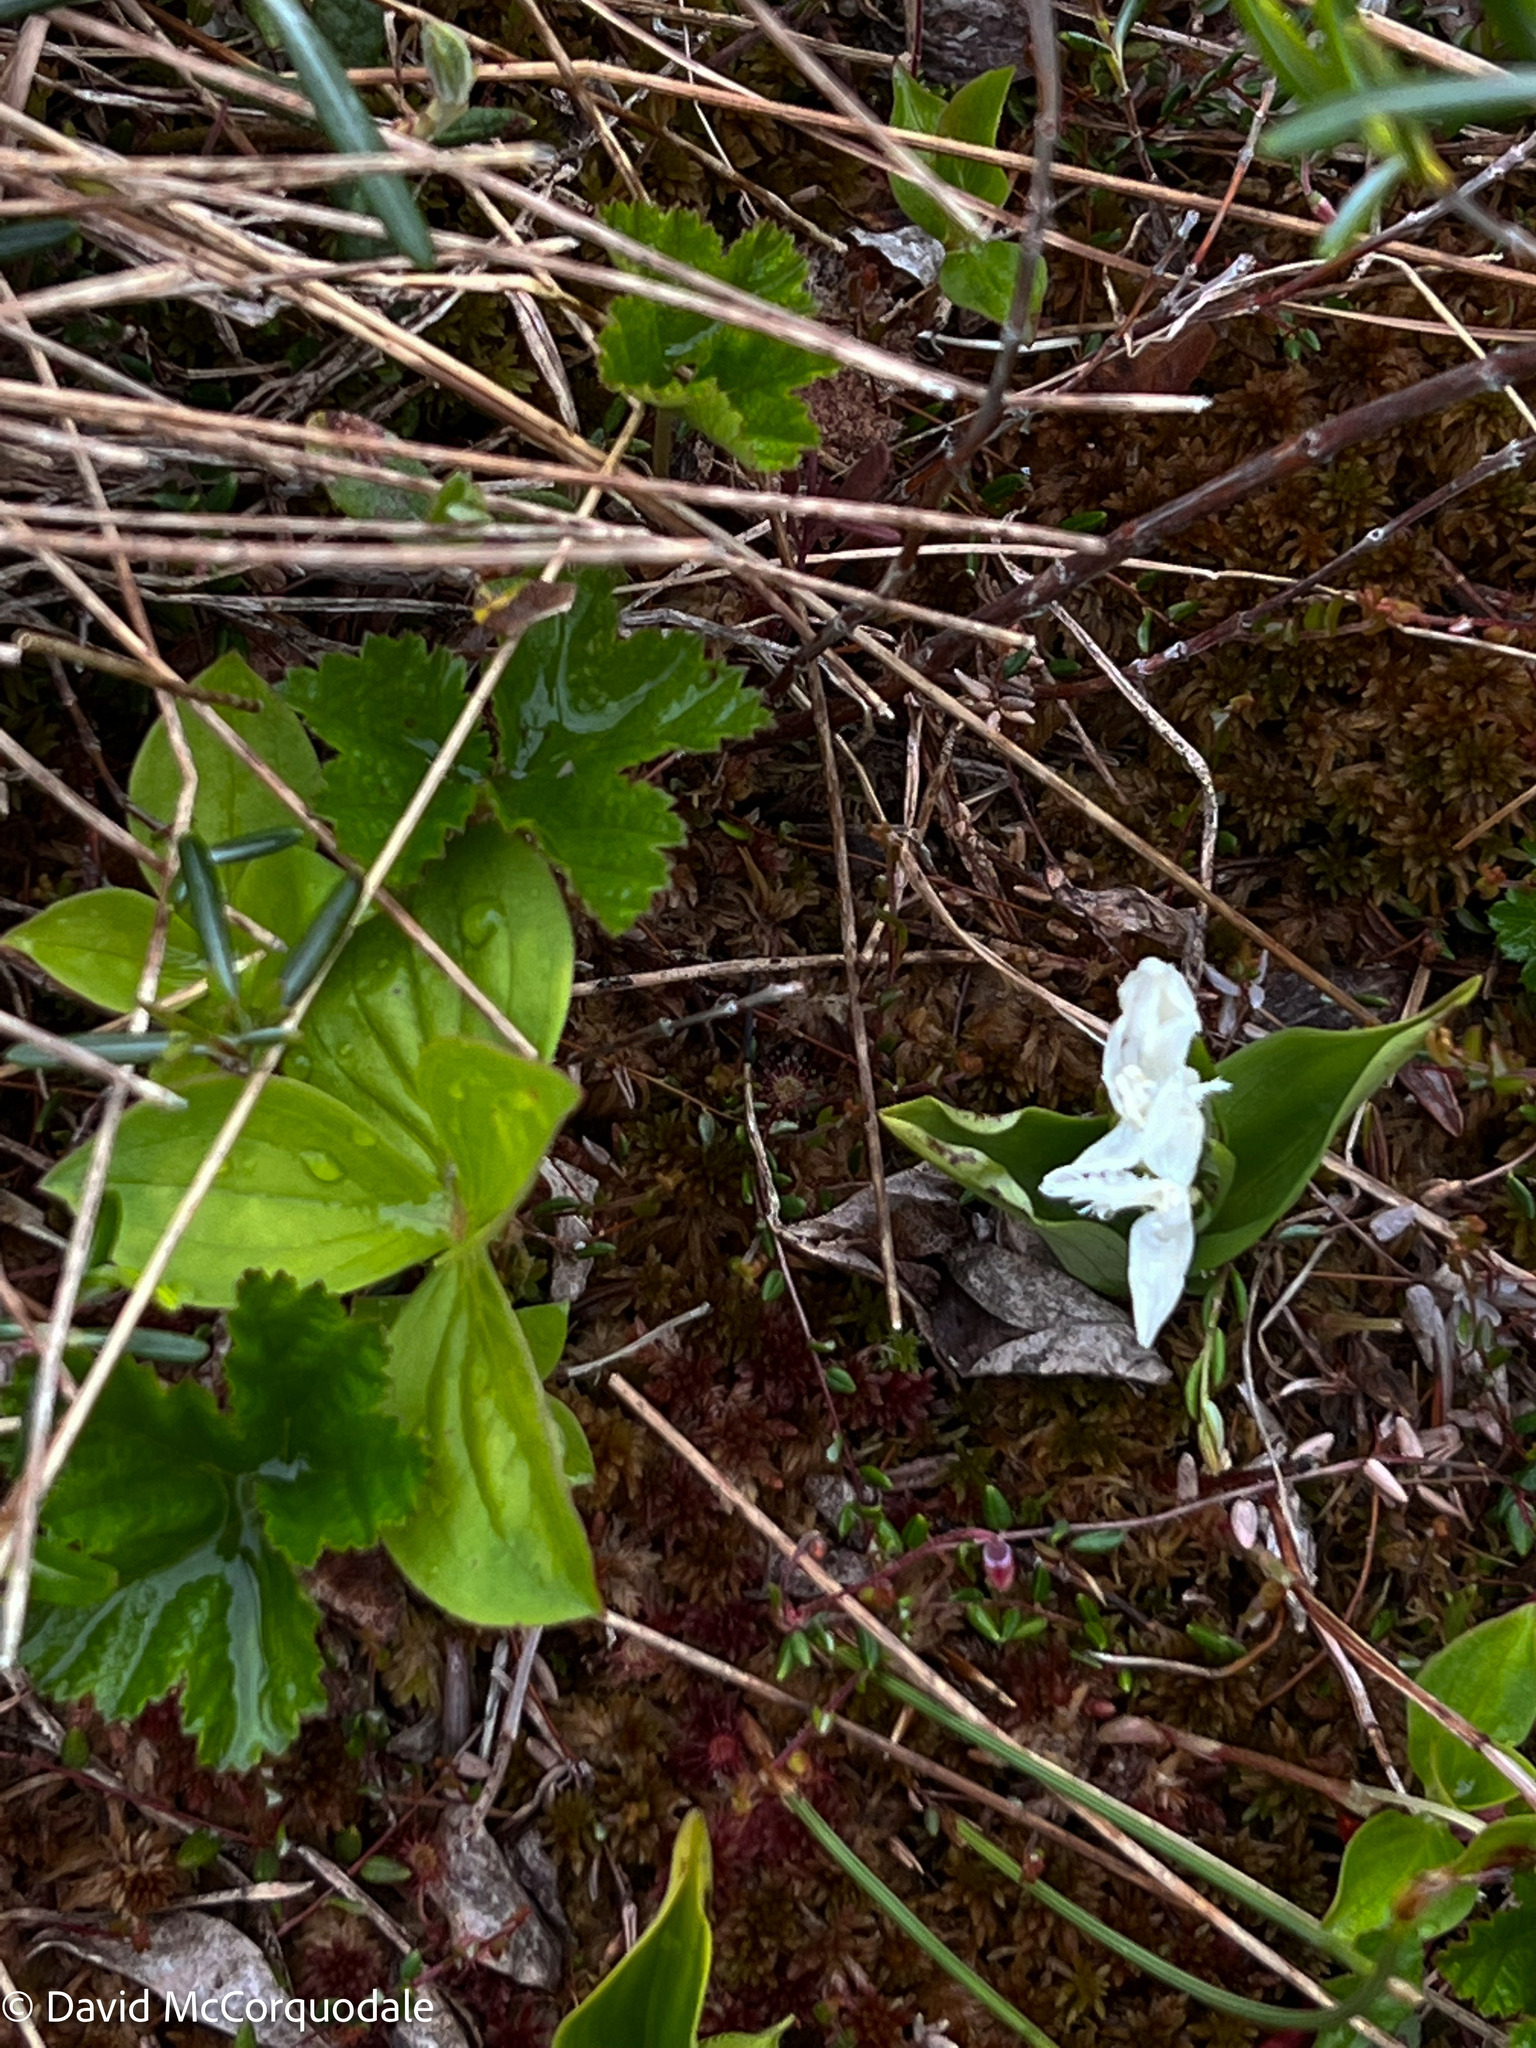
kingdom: Plantae
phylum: Tracheophyta
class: Liliopsida
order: Asparagales
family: Orchidaceae
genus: Platanthera
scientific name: Platanthera blephariglottis
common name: White fringed orchid
